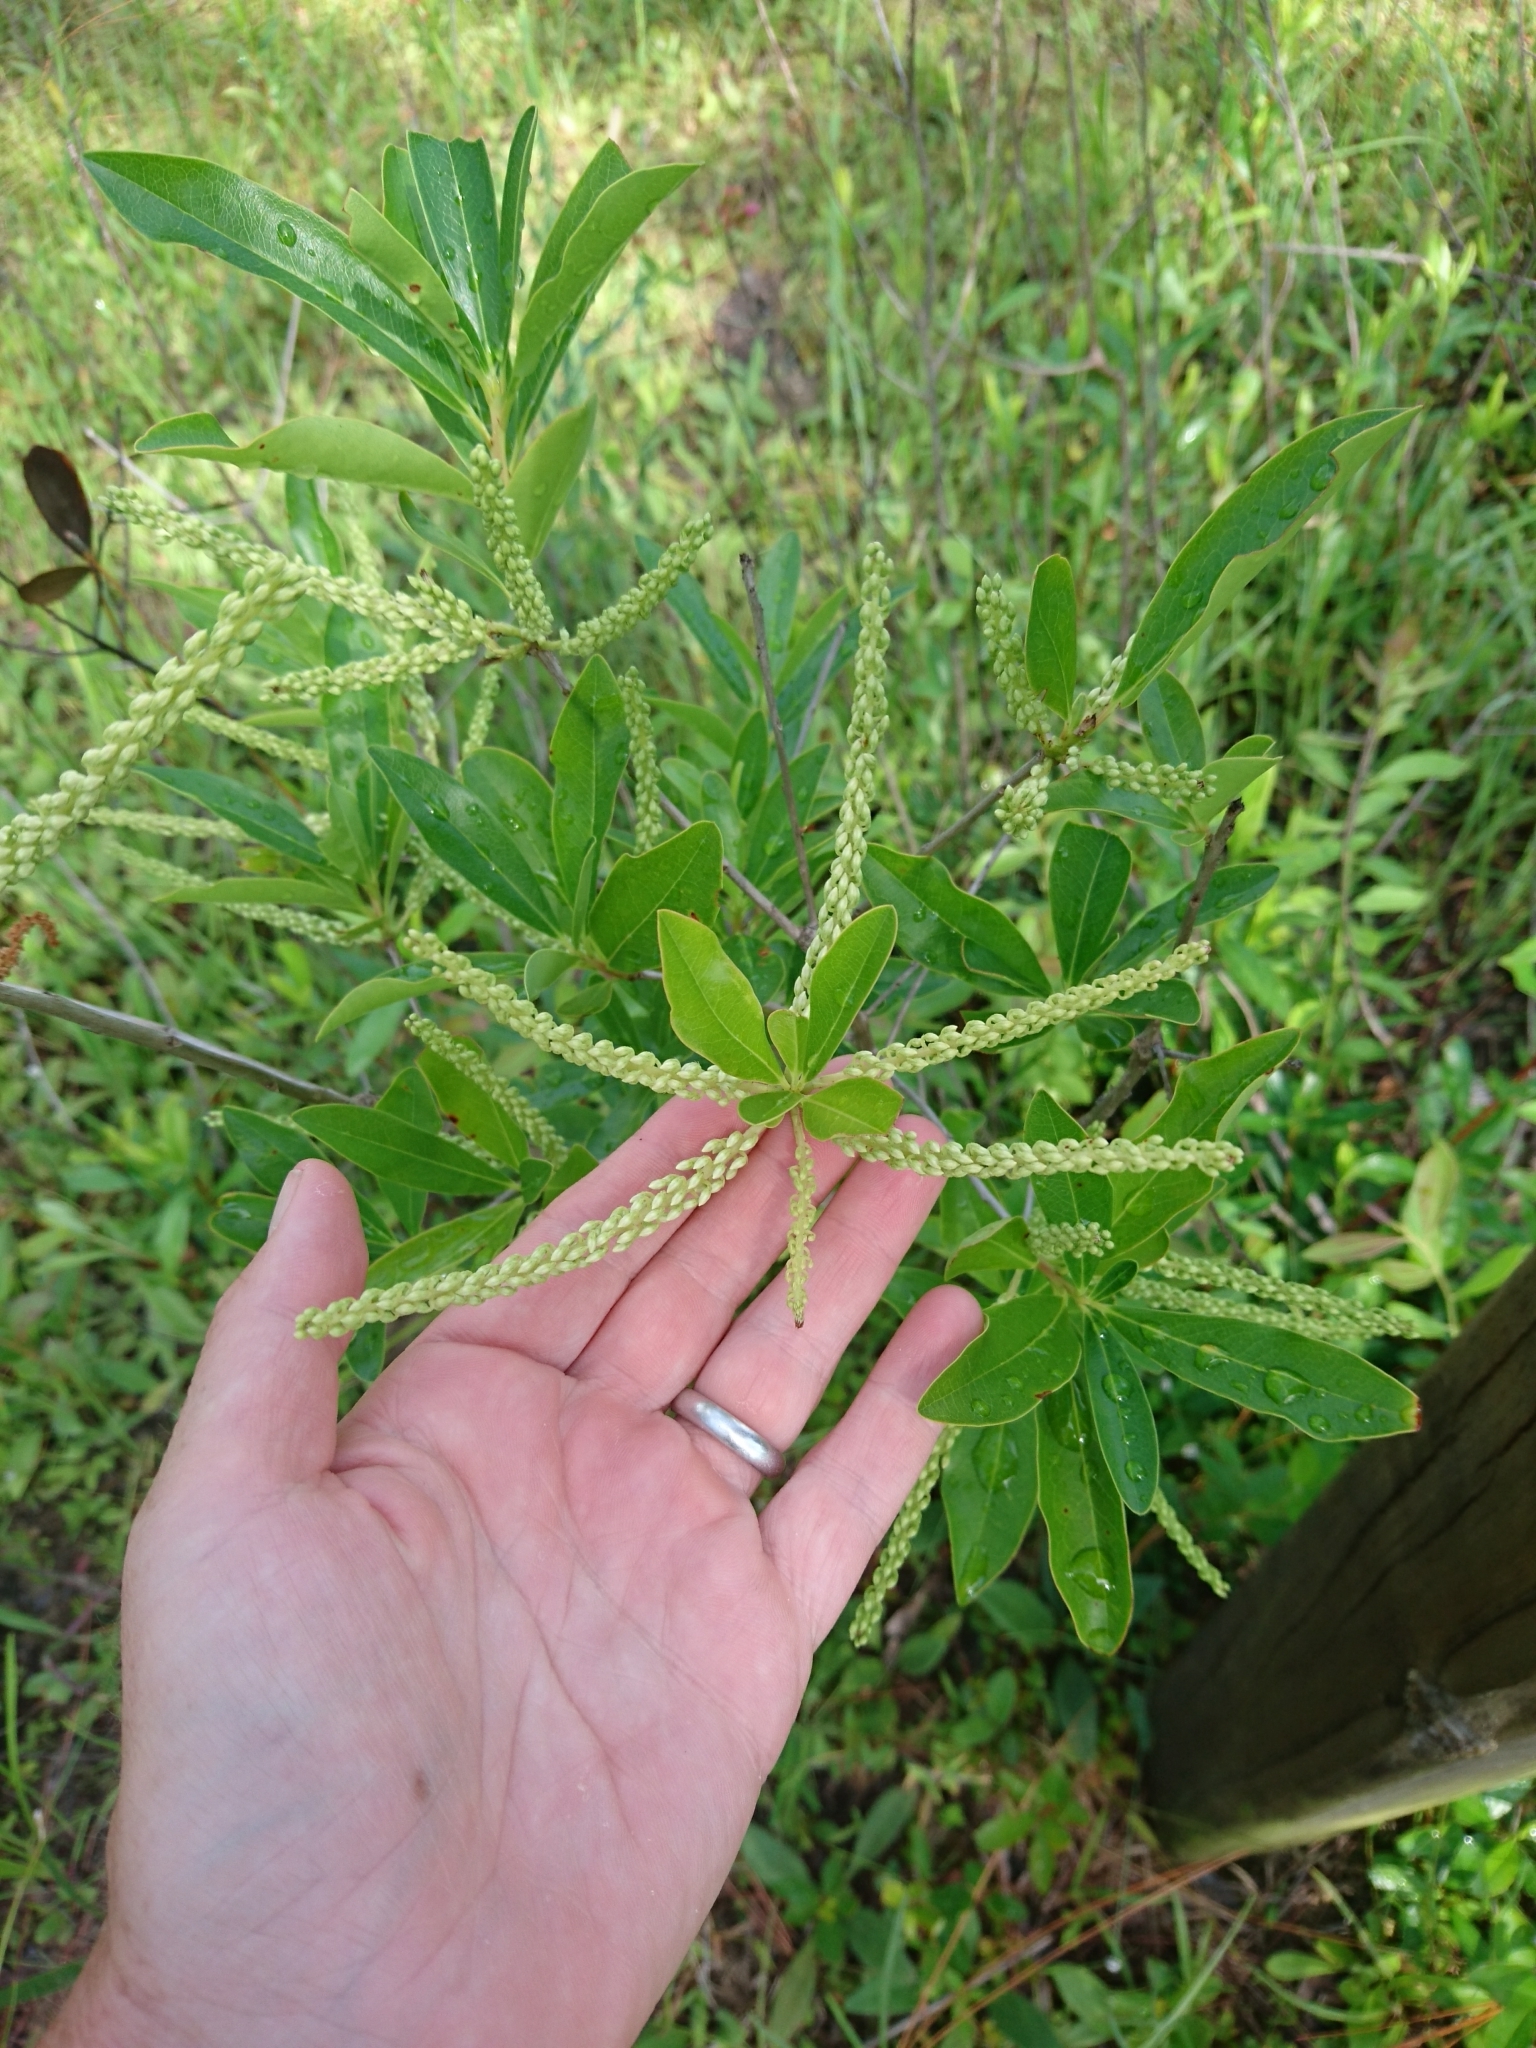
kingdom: Plantae
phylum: Tracheophyta
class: Magnoliopsida
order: Ericales
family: Cyrillaceae
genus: Cyrilla
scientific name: Cyrilla racemiflora
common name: Black titi
